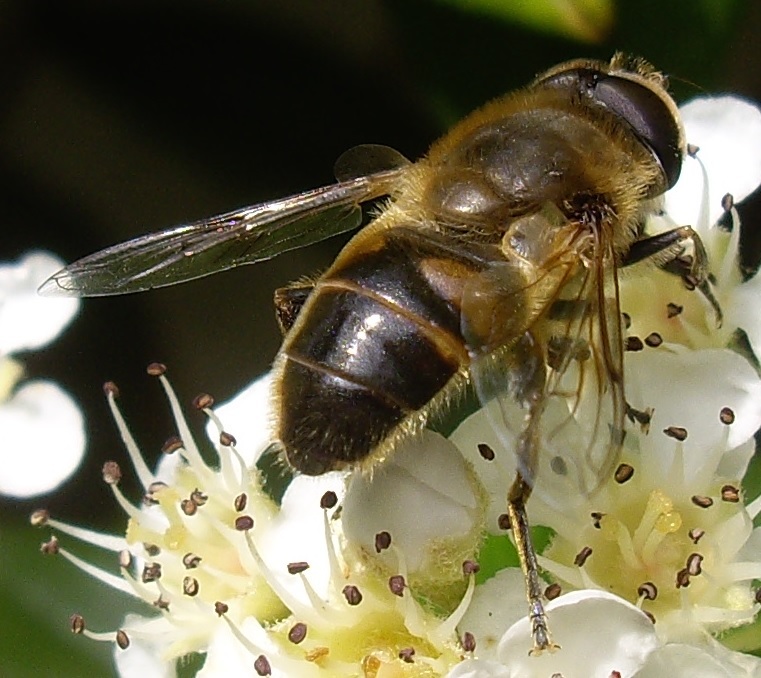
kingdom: Animalia
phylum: Arthropoda
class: Insecta
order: Diptera
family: Syrphidae
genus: Eristalis
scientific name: Eristalis tenax
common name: Drone fly
